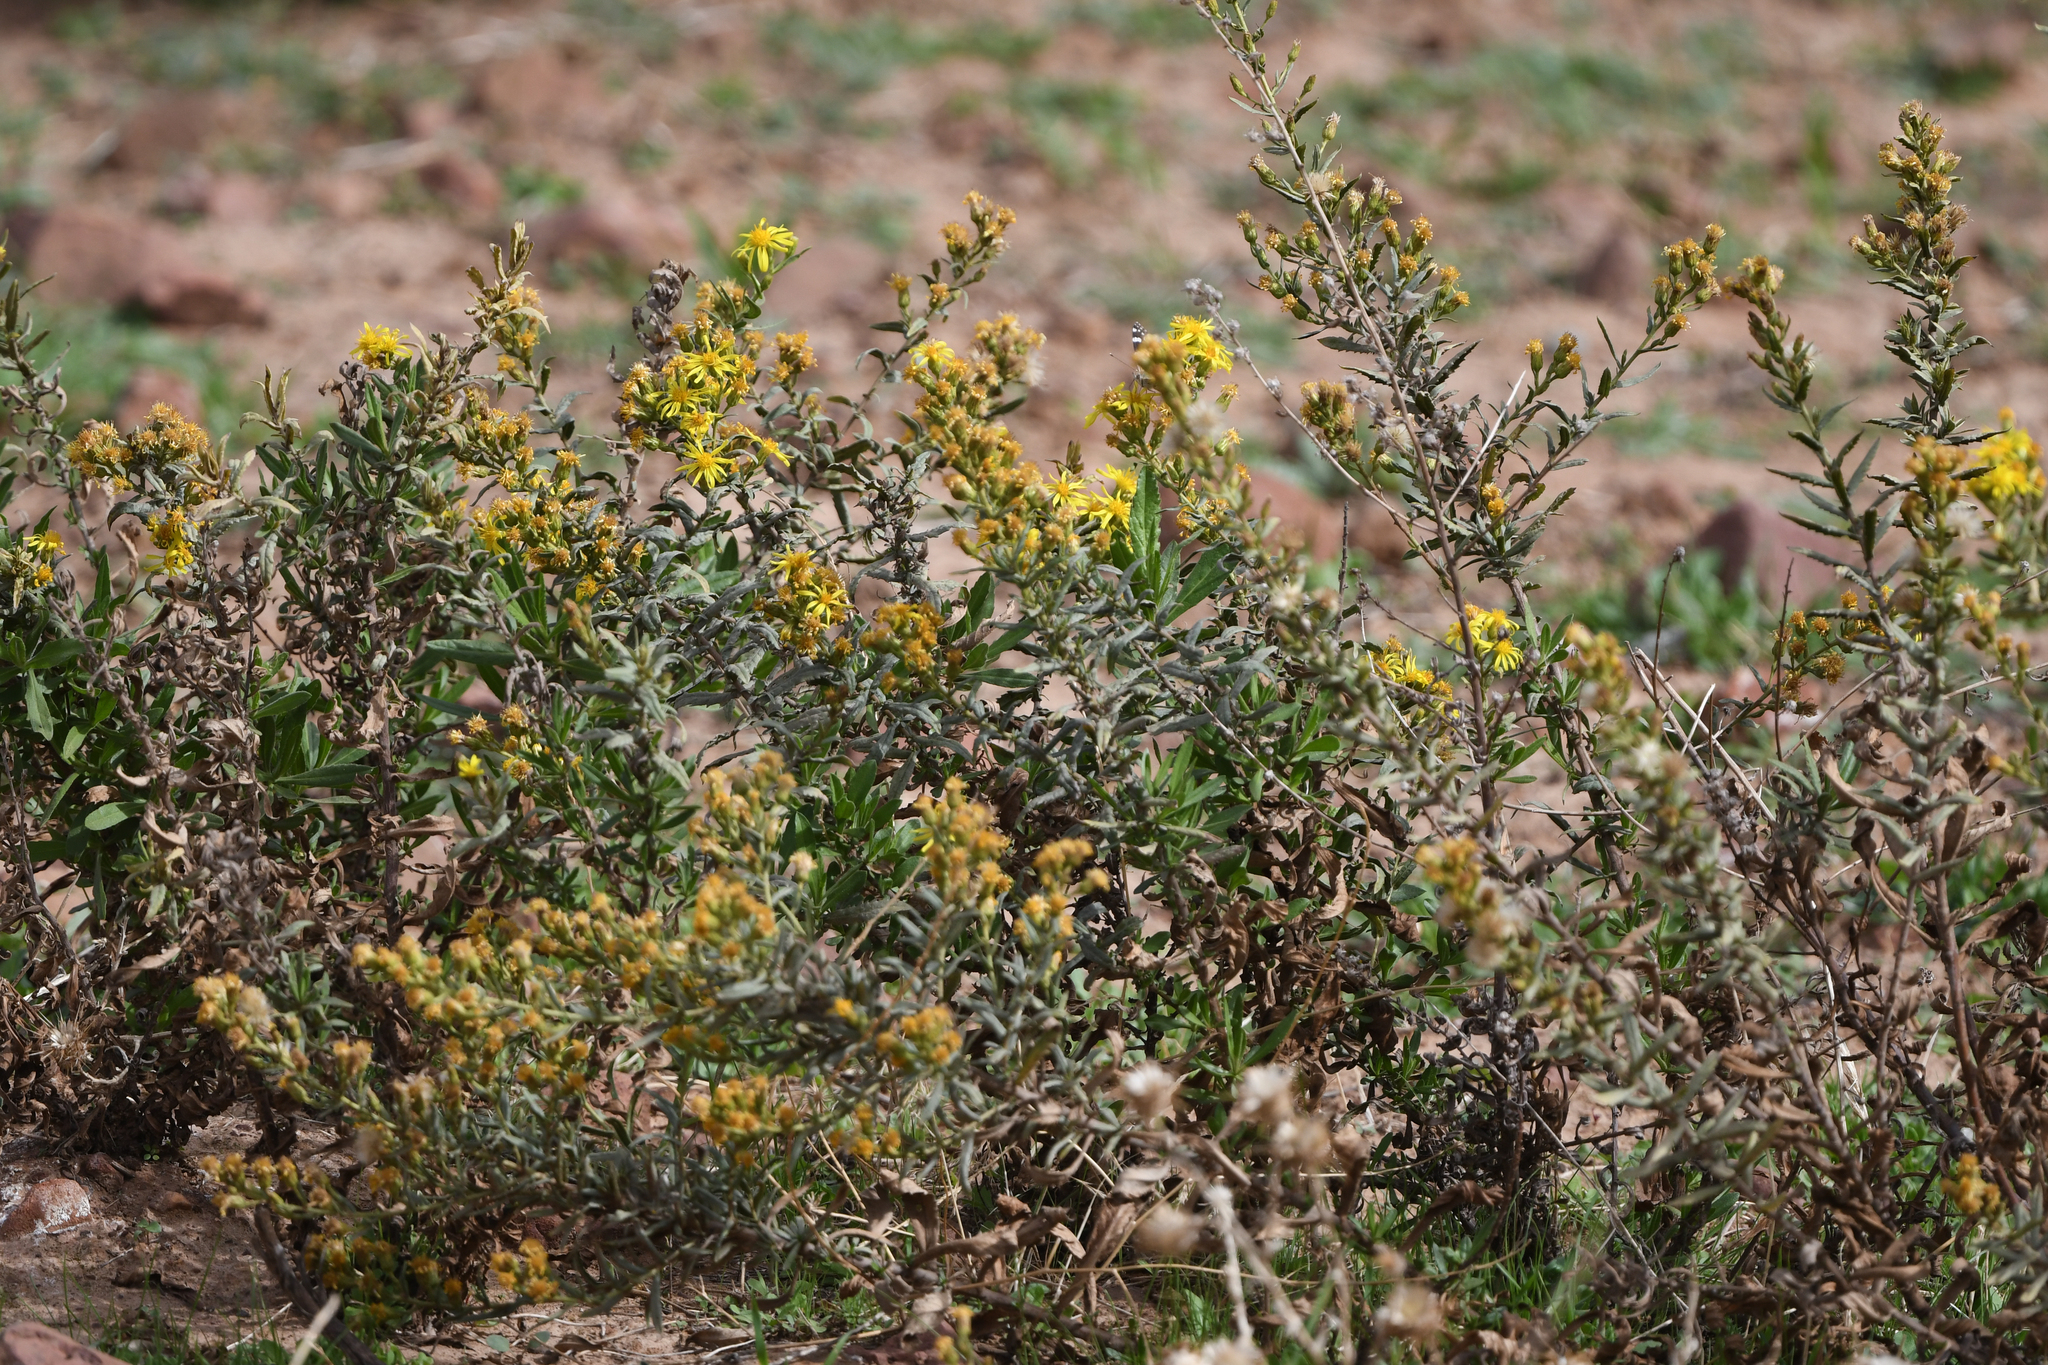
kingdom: Plantae
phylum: Tracheophyta
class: Magnoliopsida
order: Asterales
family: Asteraceae
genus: Dittrichia
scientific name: Dittrichia viscosa
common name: Woody fleabane
